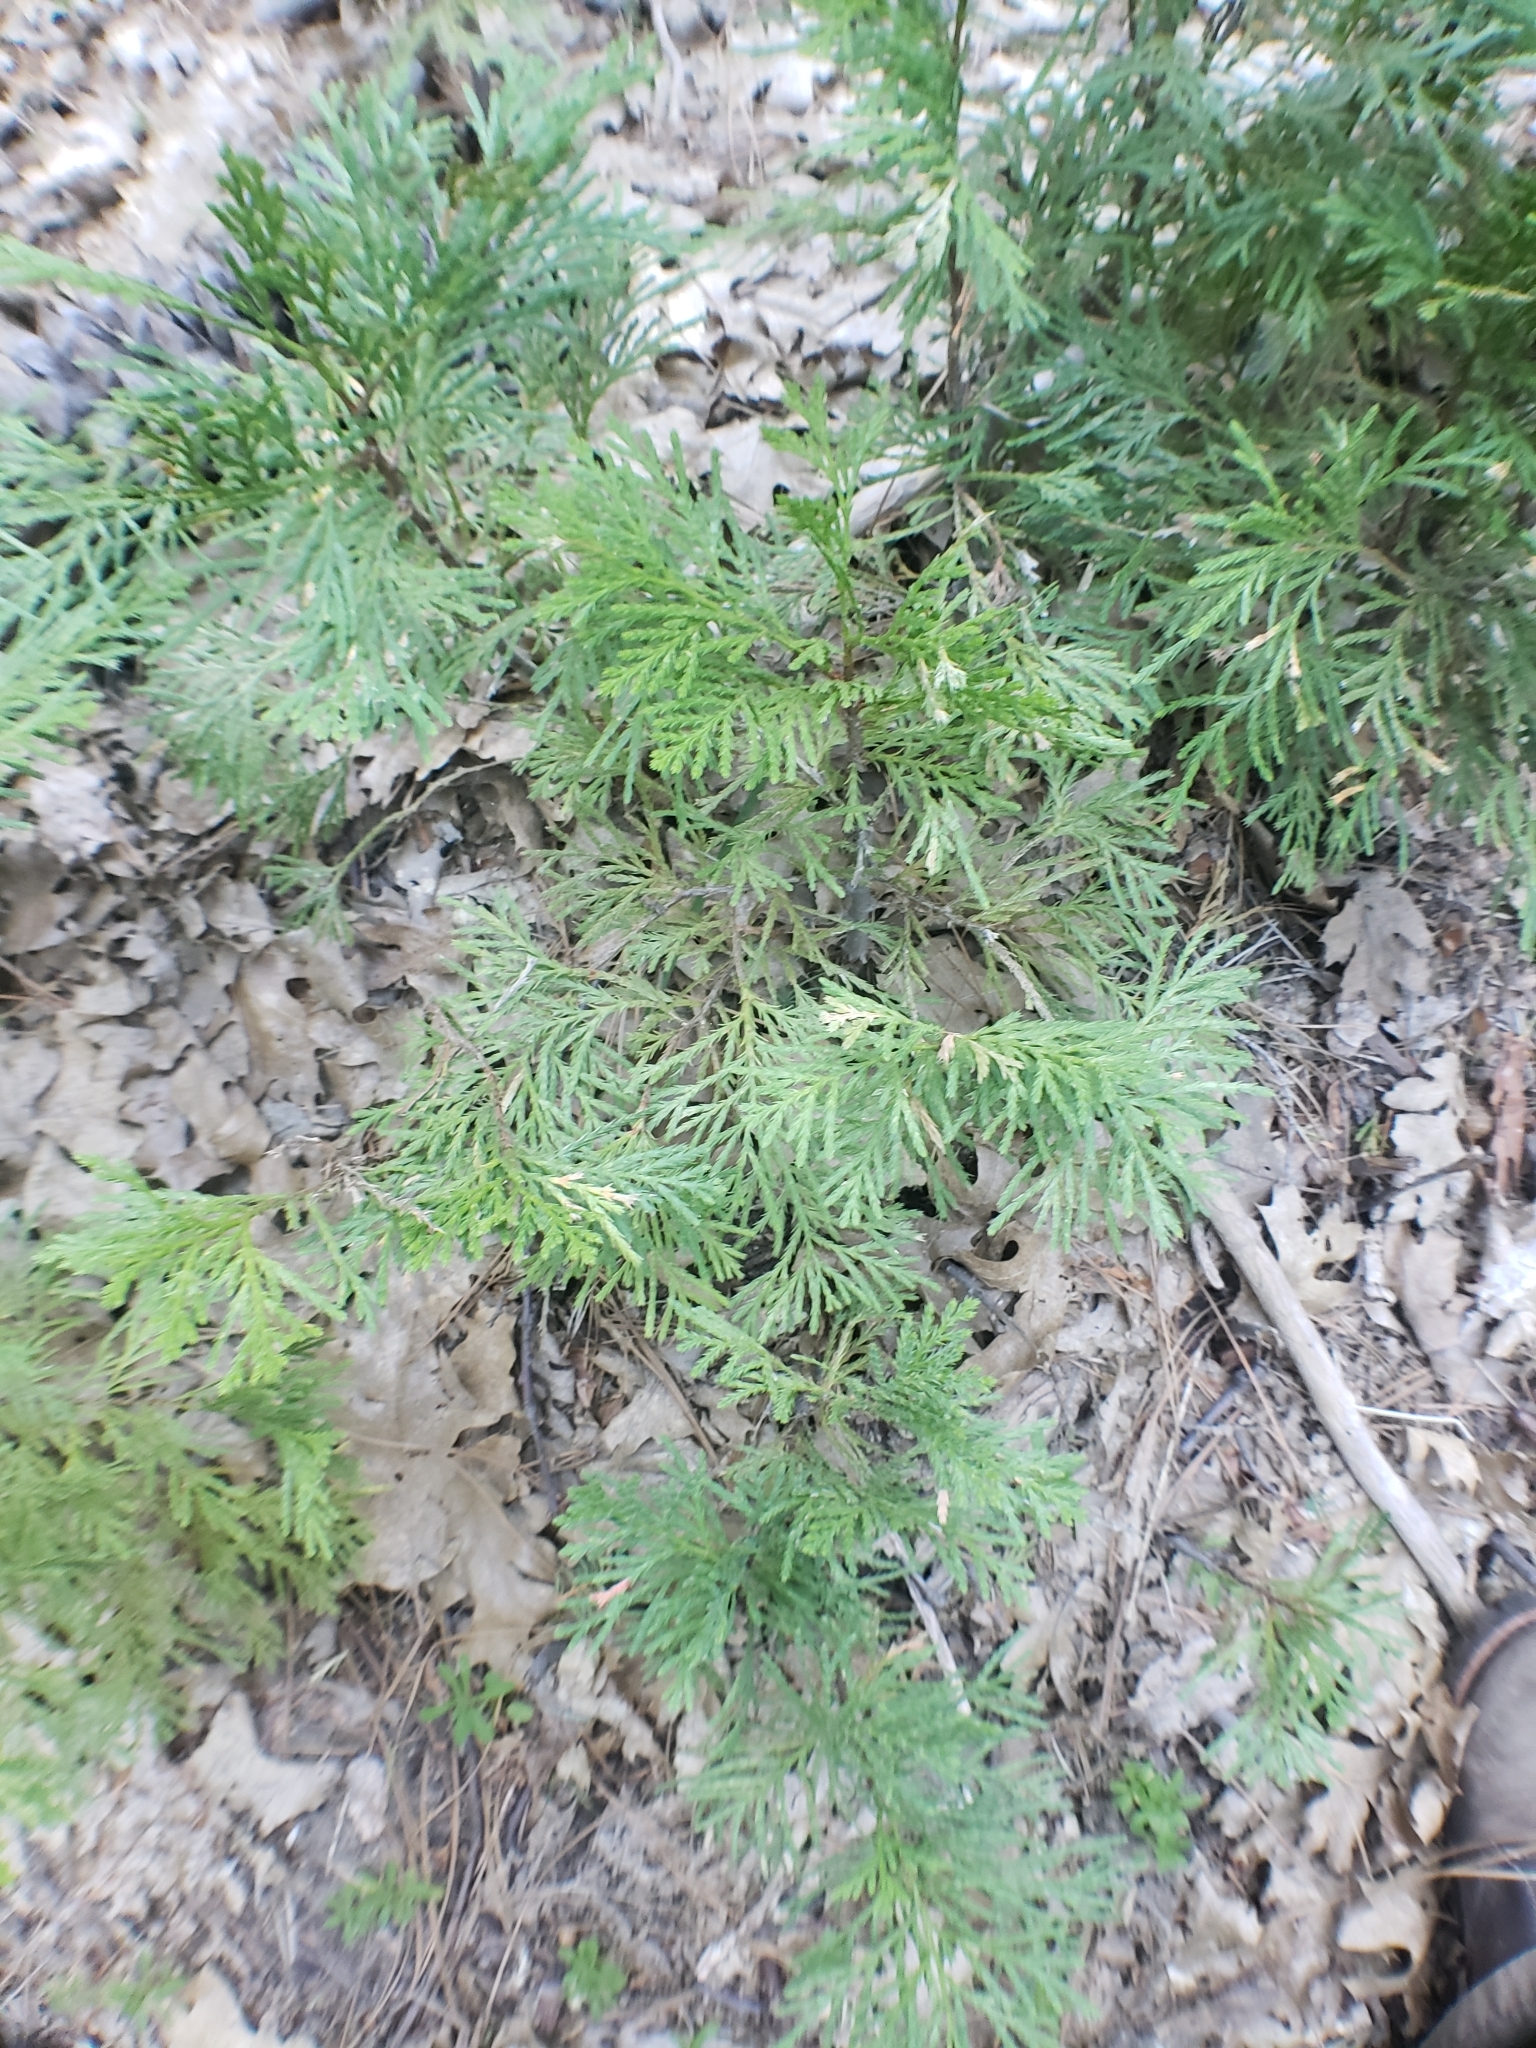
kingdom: Plantae
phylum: Tracheophyta
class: Pinopsida
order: Pinales
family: Cupressaceae
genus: Calocedrus
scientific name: Calocedrus decurrens
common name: Californian incense-cedar
